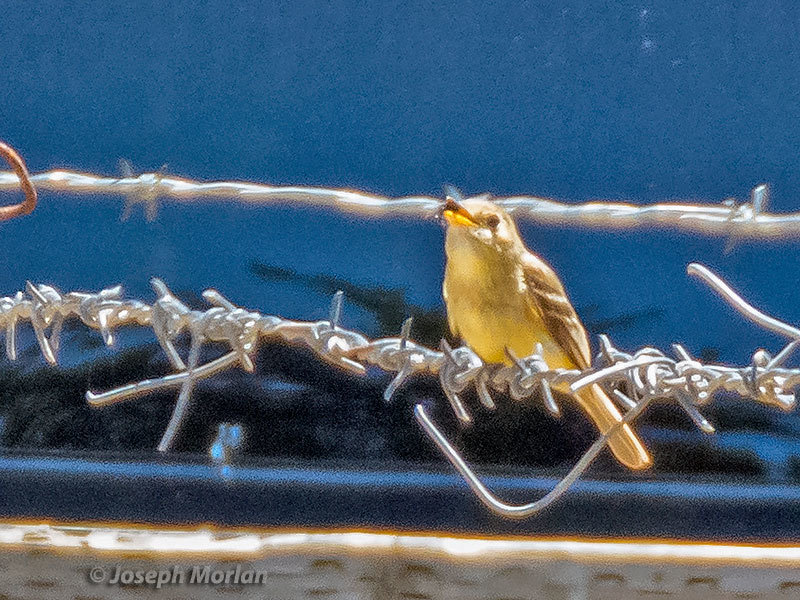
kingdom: Animalia
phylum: Chordata
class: Aves
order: Passeriformes
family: Tyrannidae
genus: Empidonax
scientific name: Empidonax difficilis
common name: Pacific-slope flycatcher
